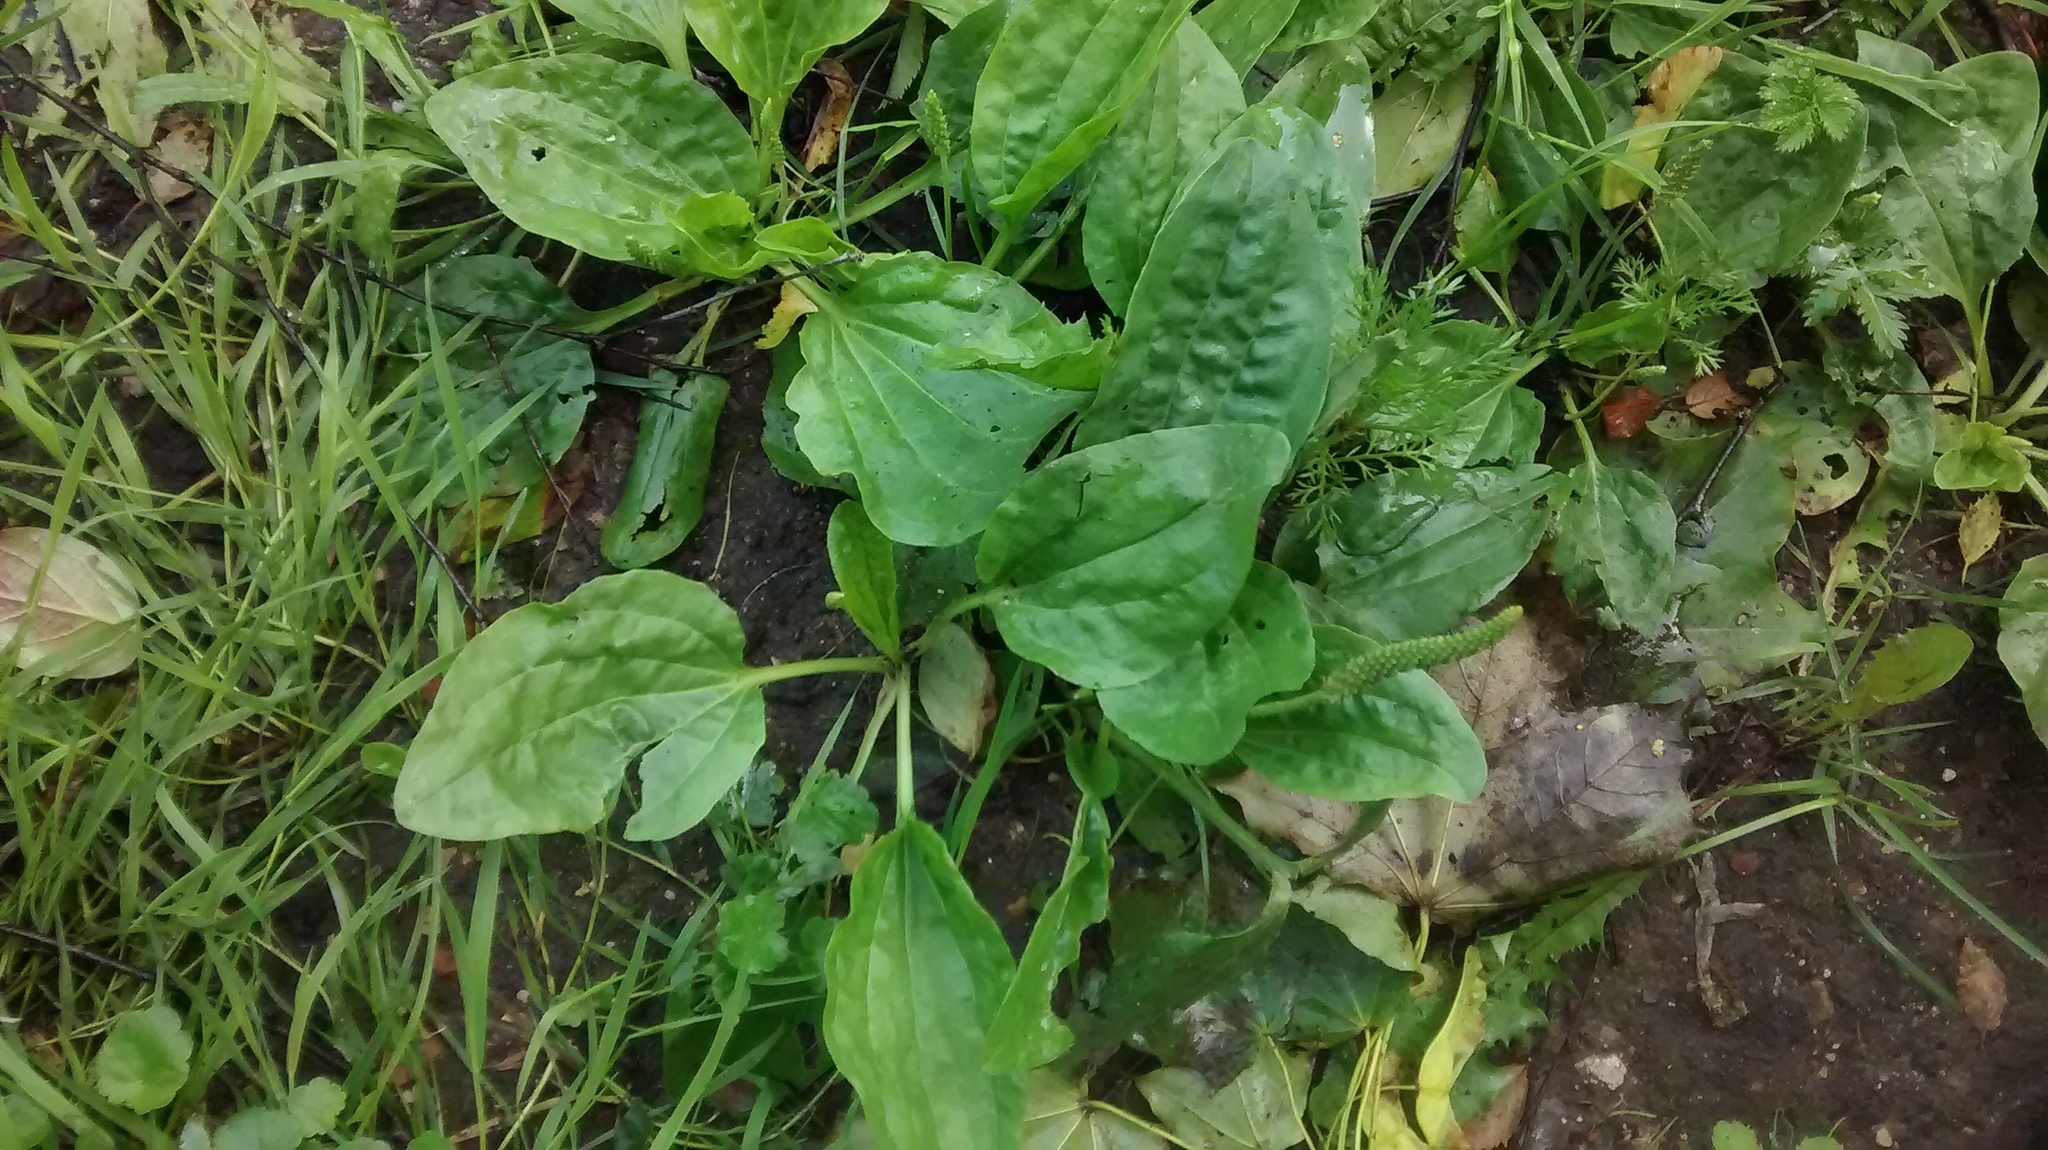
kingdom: Plantae
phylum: Tracheophyta
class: Magnoliopsida
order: Lamiales
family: Plantaginaceae
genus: Plantago
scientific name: Plantago major
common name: Common plantain
